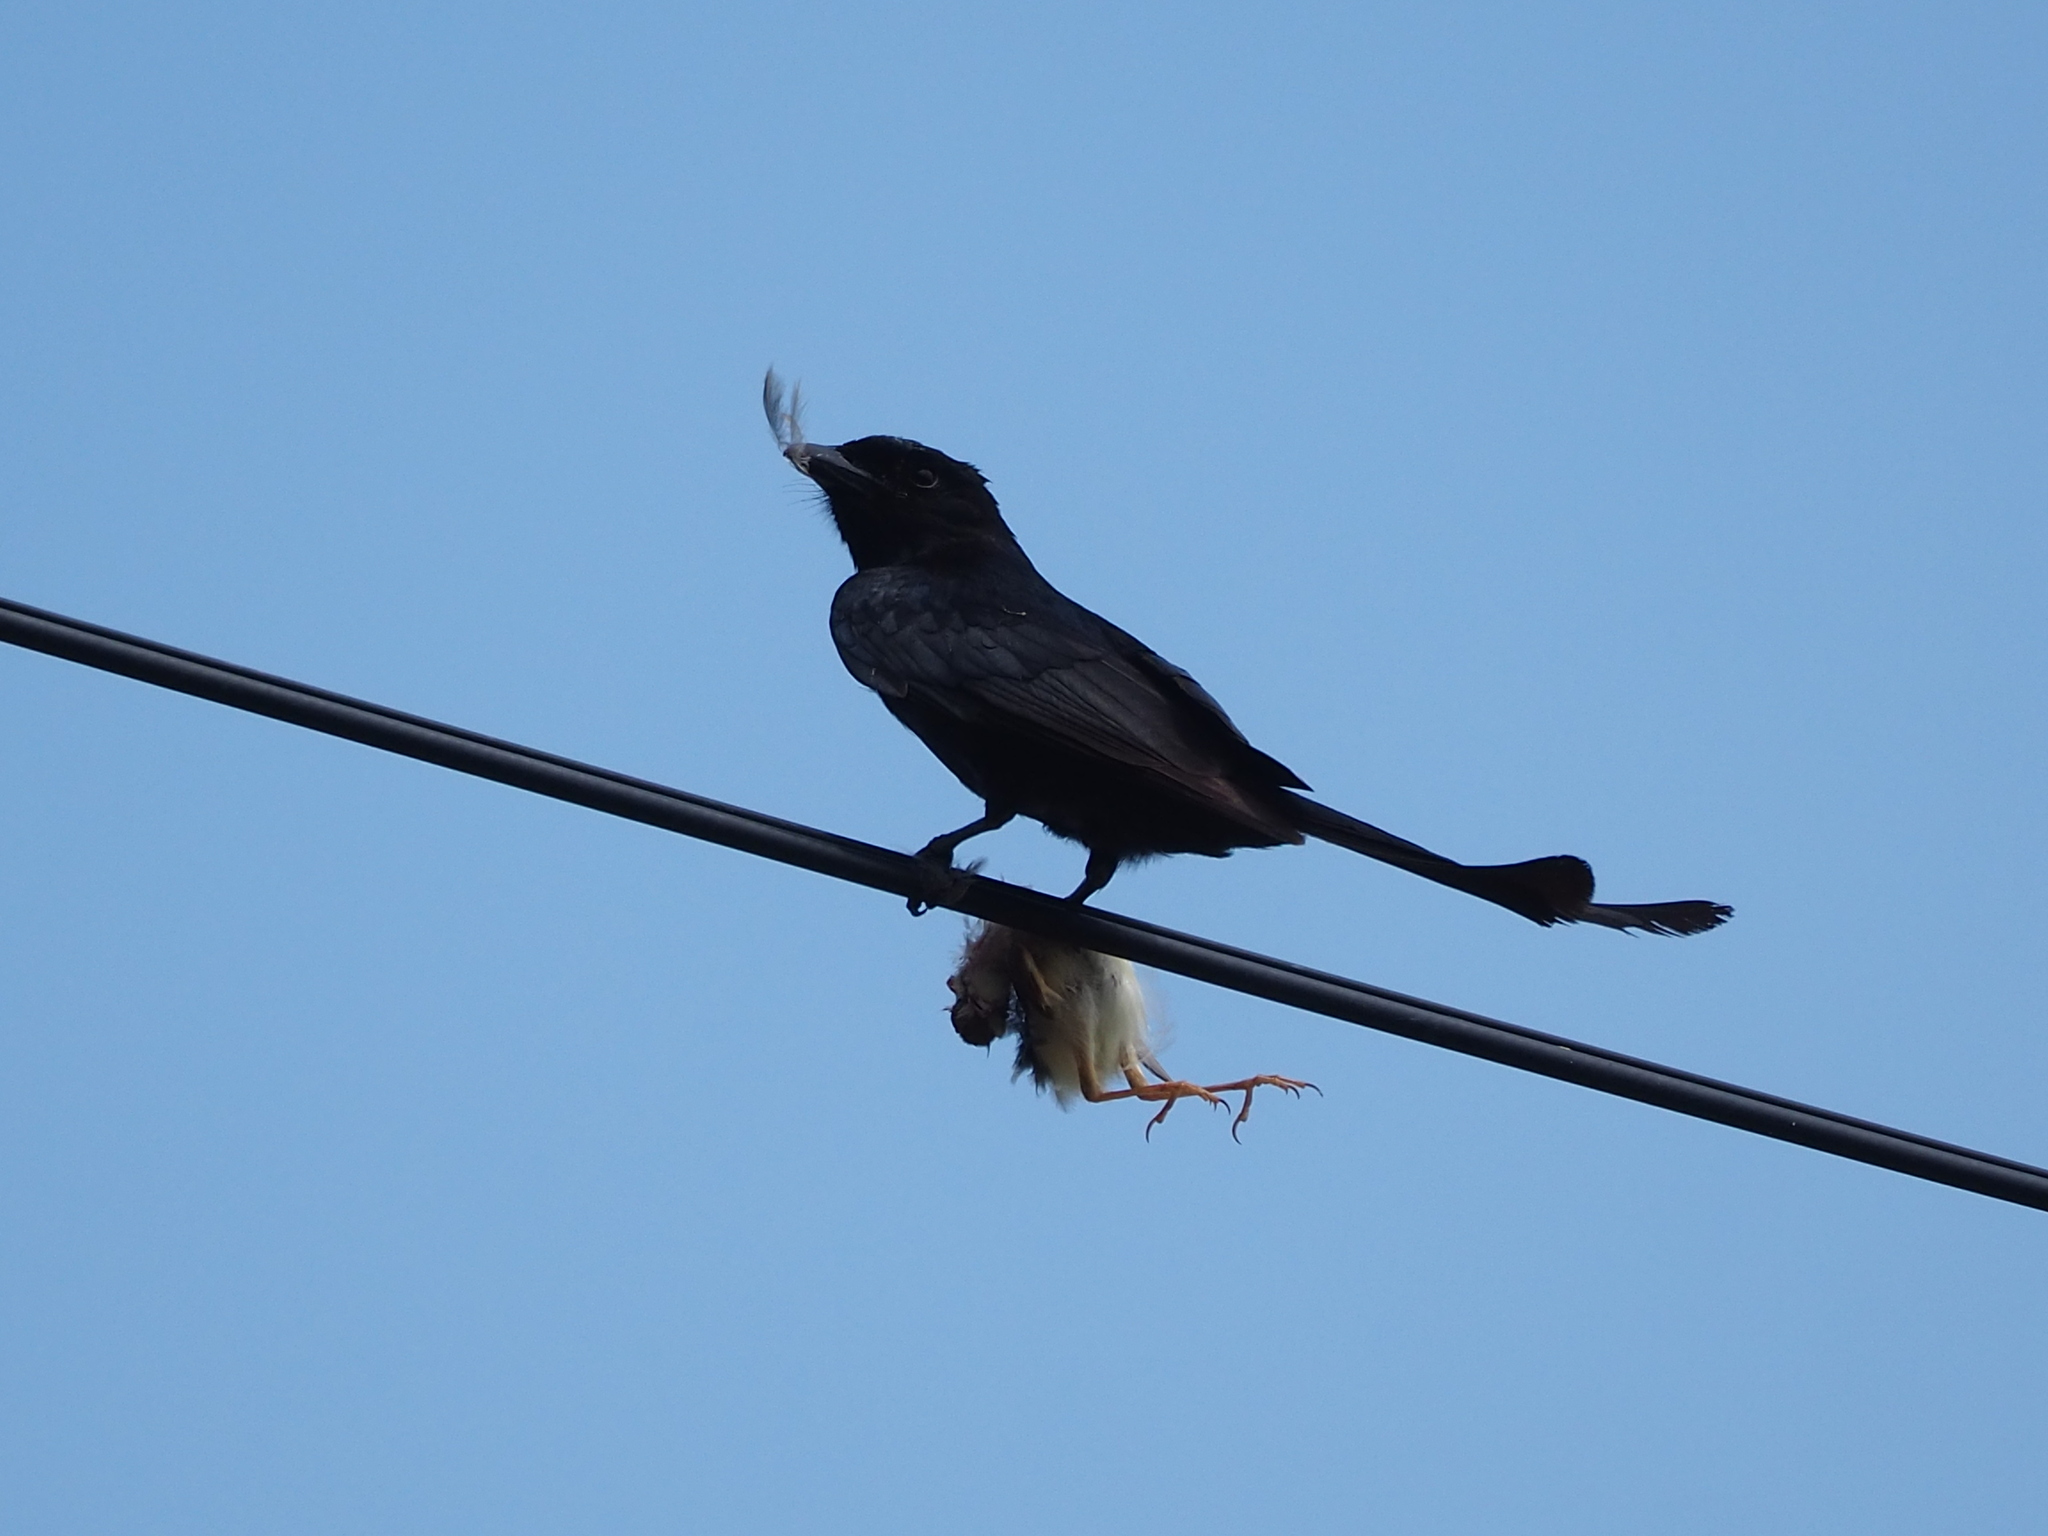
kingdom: Animalia
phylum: Chordata
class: Aves
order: Passeriformes
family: Dicruridae
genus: Dicrurus
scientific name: Dicrurus macrocercus
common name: Black drongo
